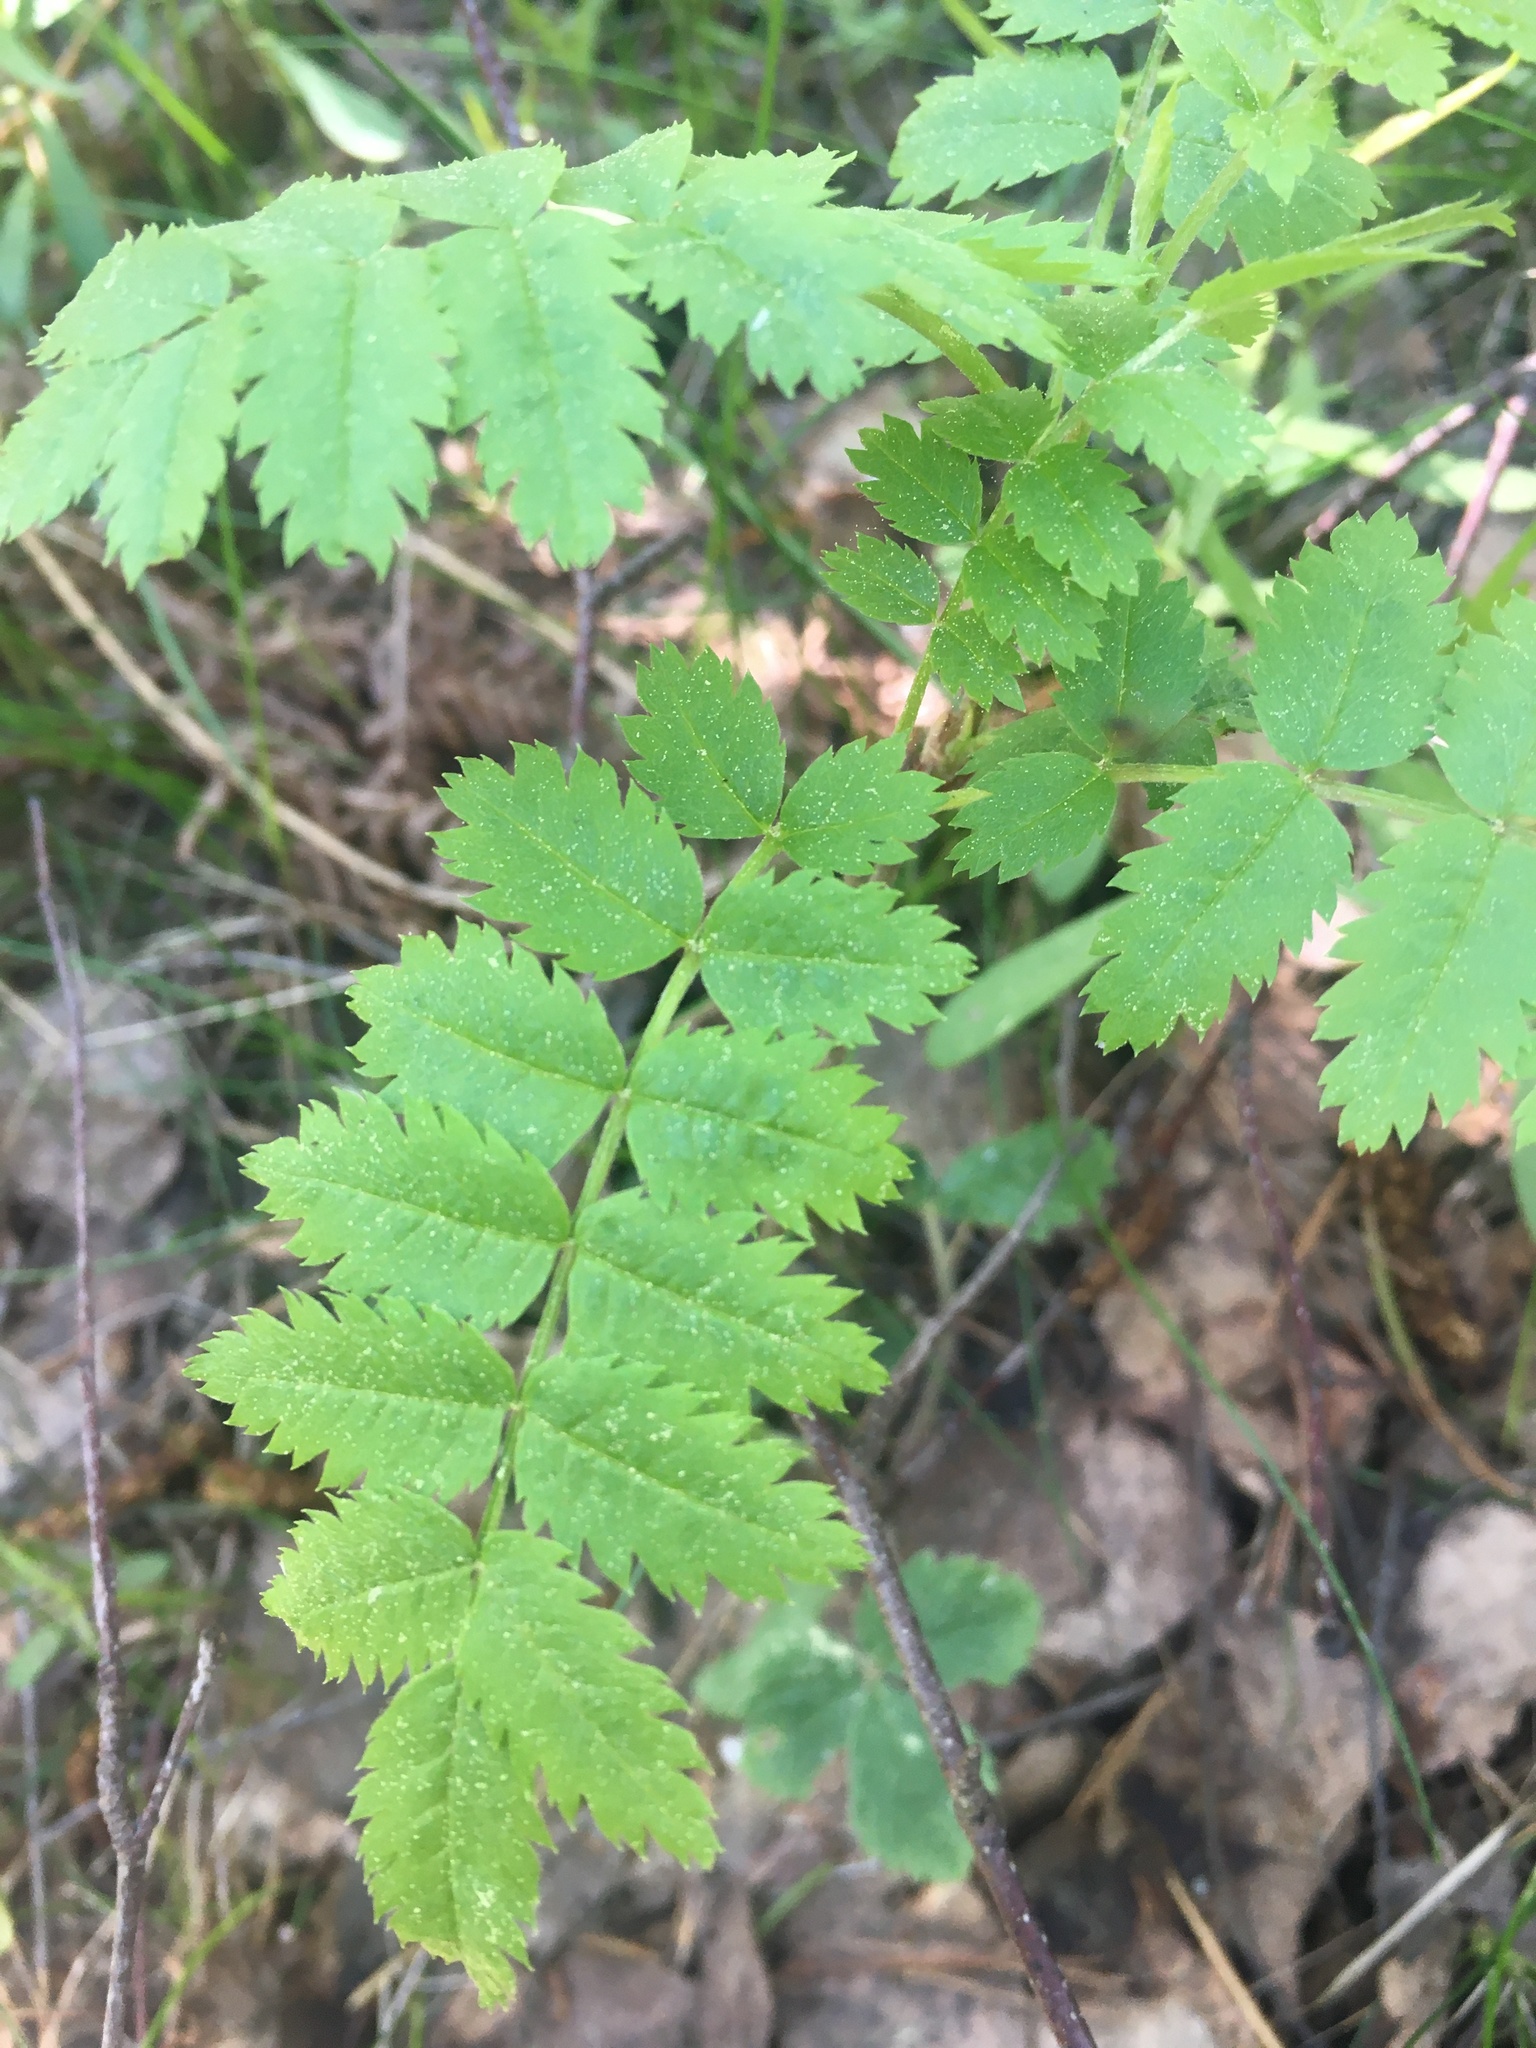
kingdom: Plantae
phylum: Tracheophyta
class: Magnoliopsida
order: Rosales
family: Rosaceae
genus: Sorbus
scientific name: Sorbus aucuparia
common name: Rowan
